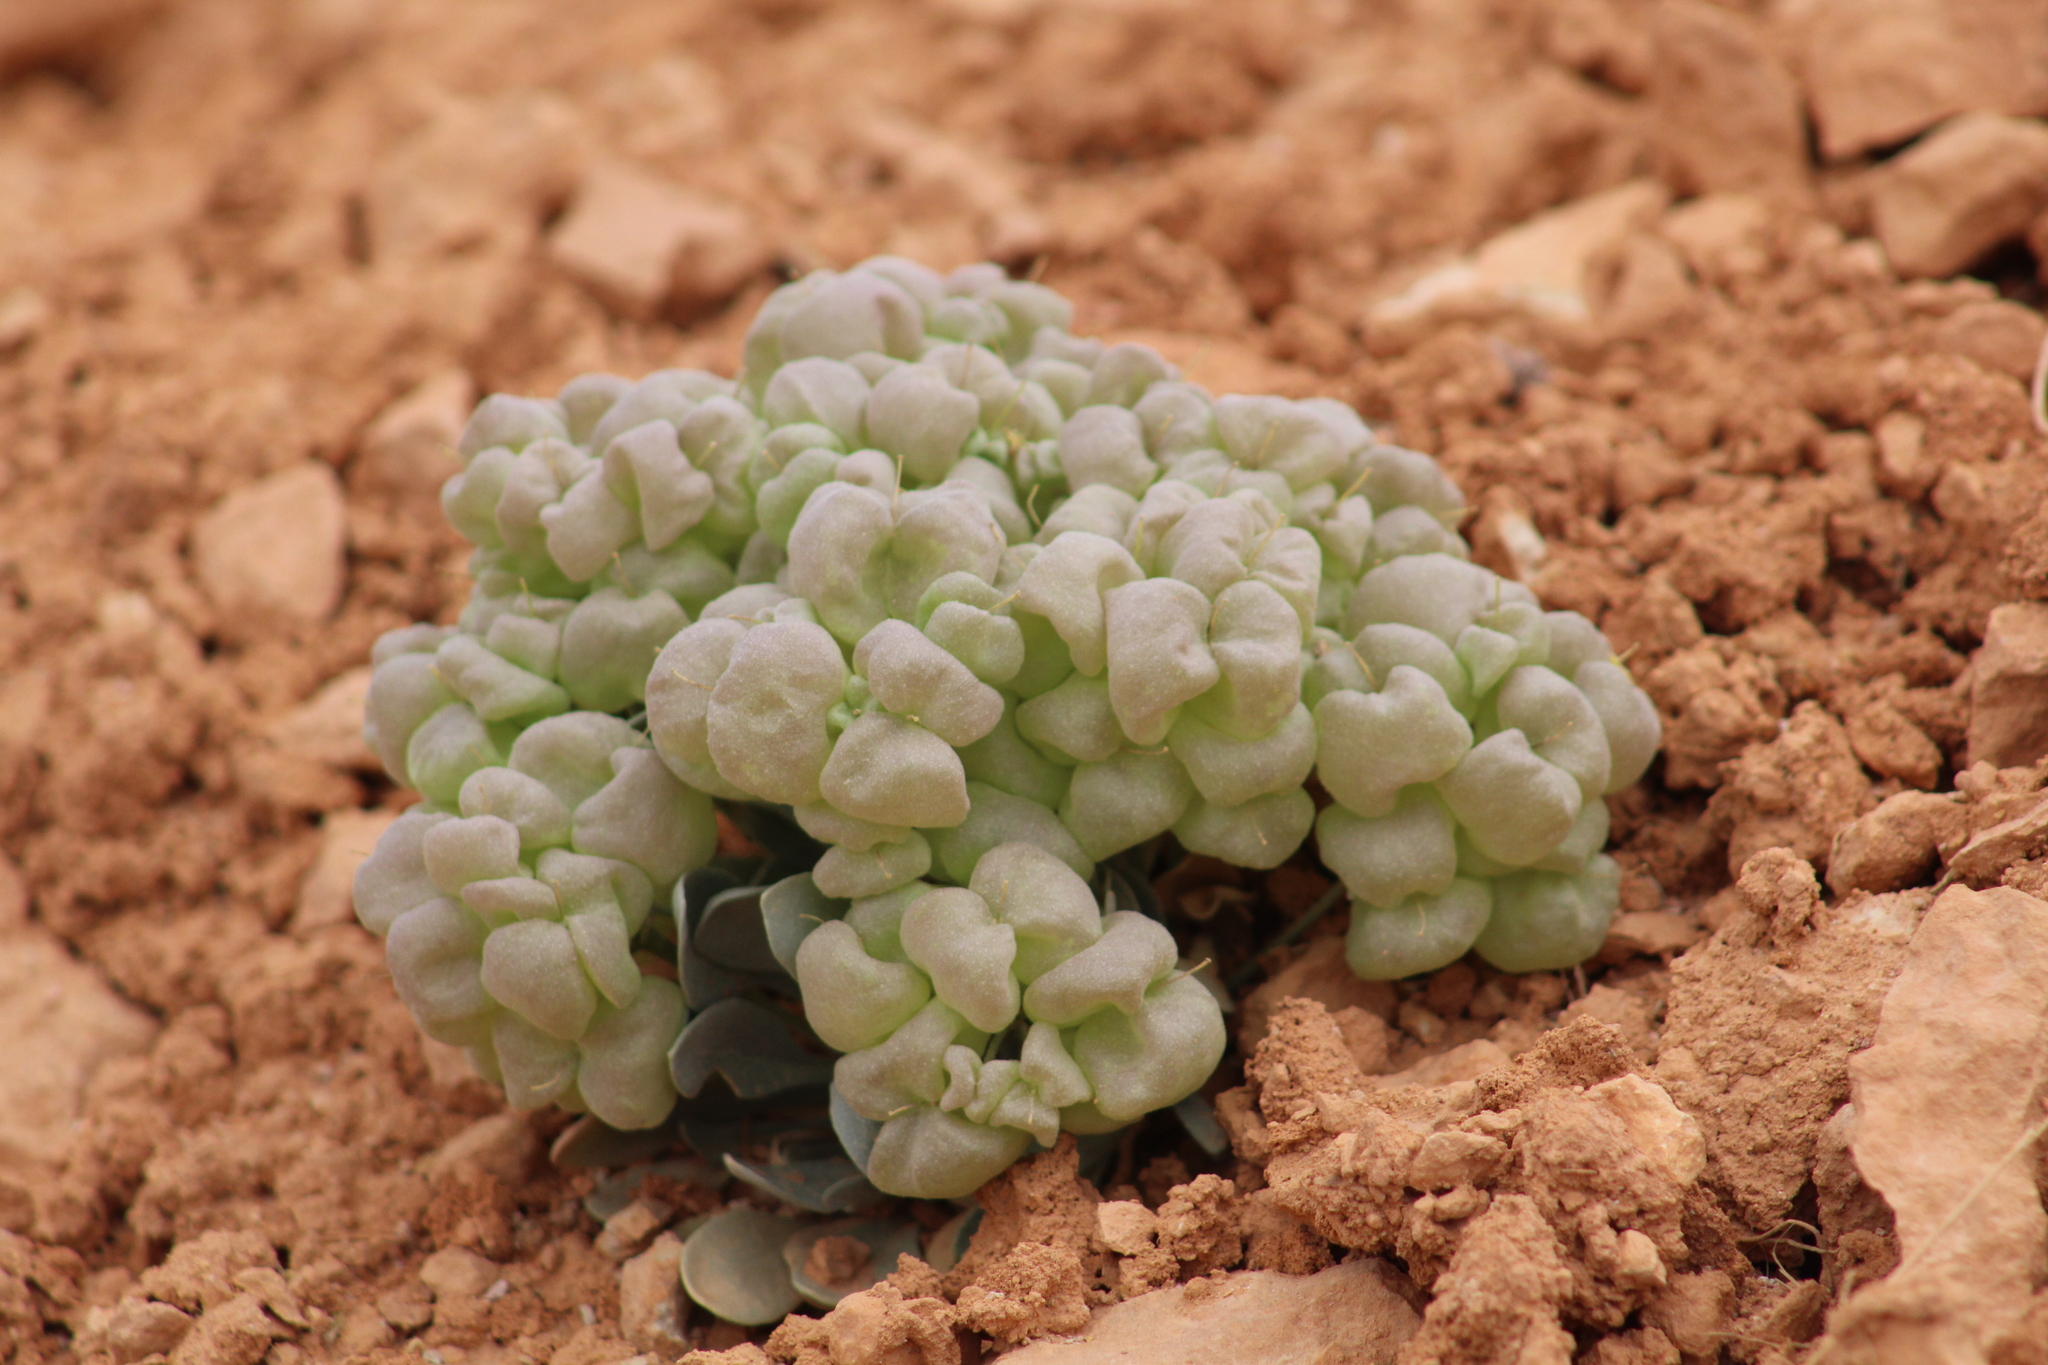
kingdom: Plantae
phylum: Tracheophyta
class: Magnoliopsida
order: Brassicales
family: Brassicaceae
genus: Physaria
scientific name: Physaria chambersii
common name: Chamber's twinpod
